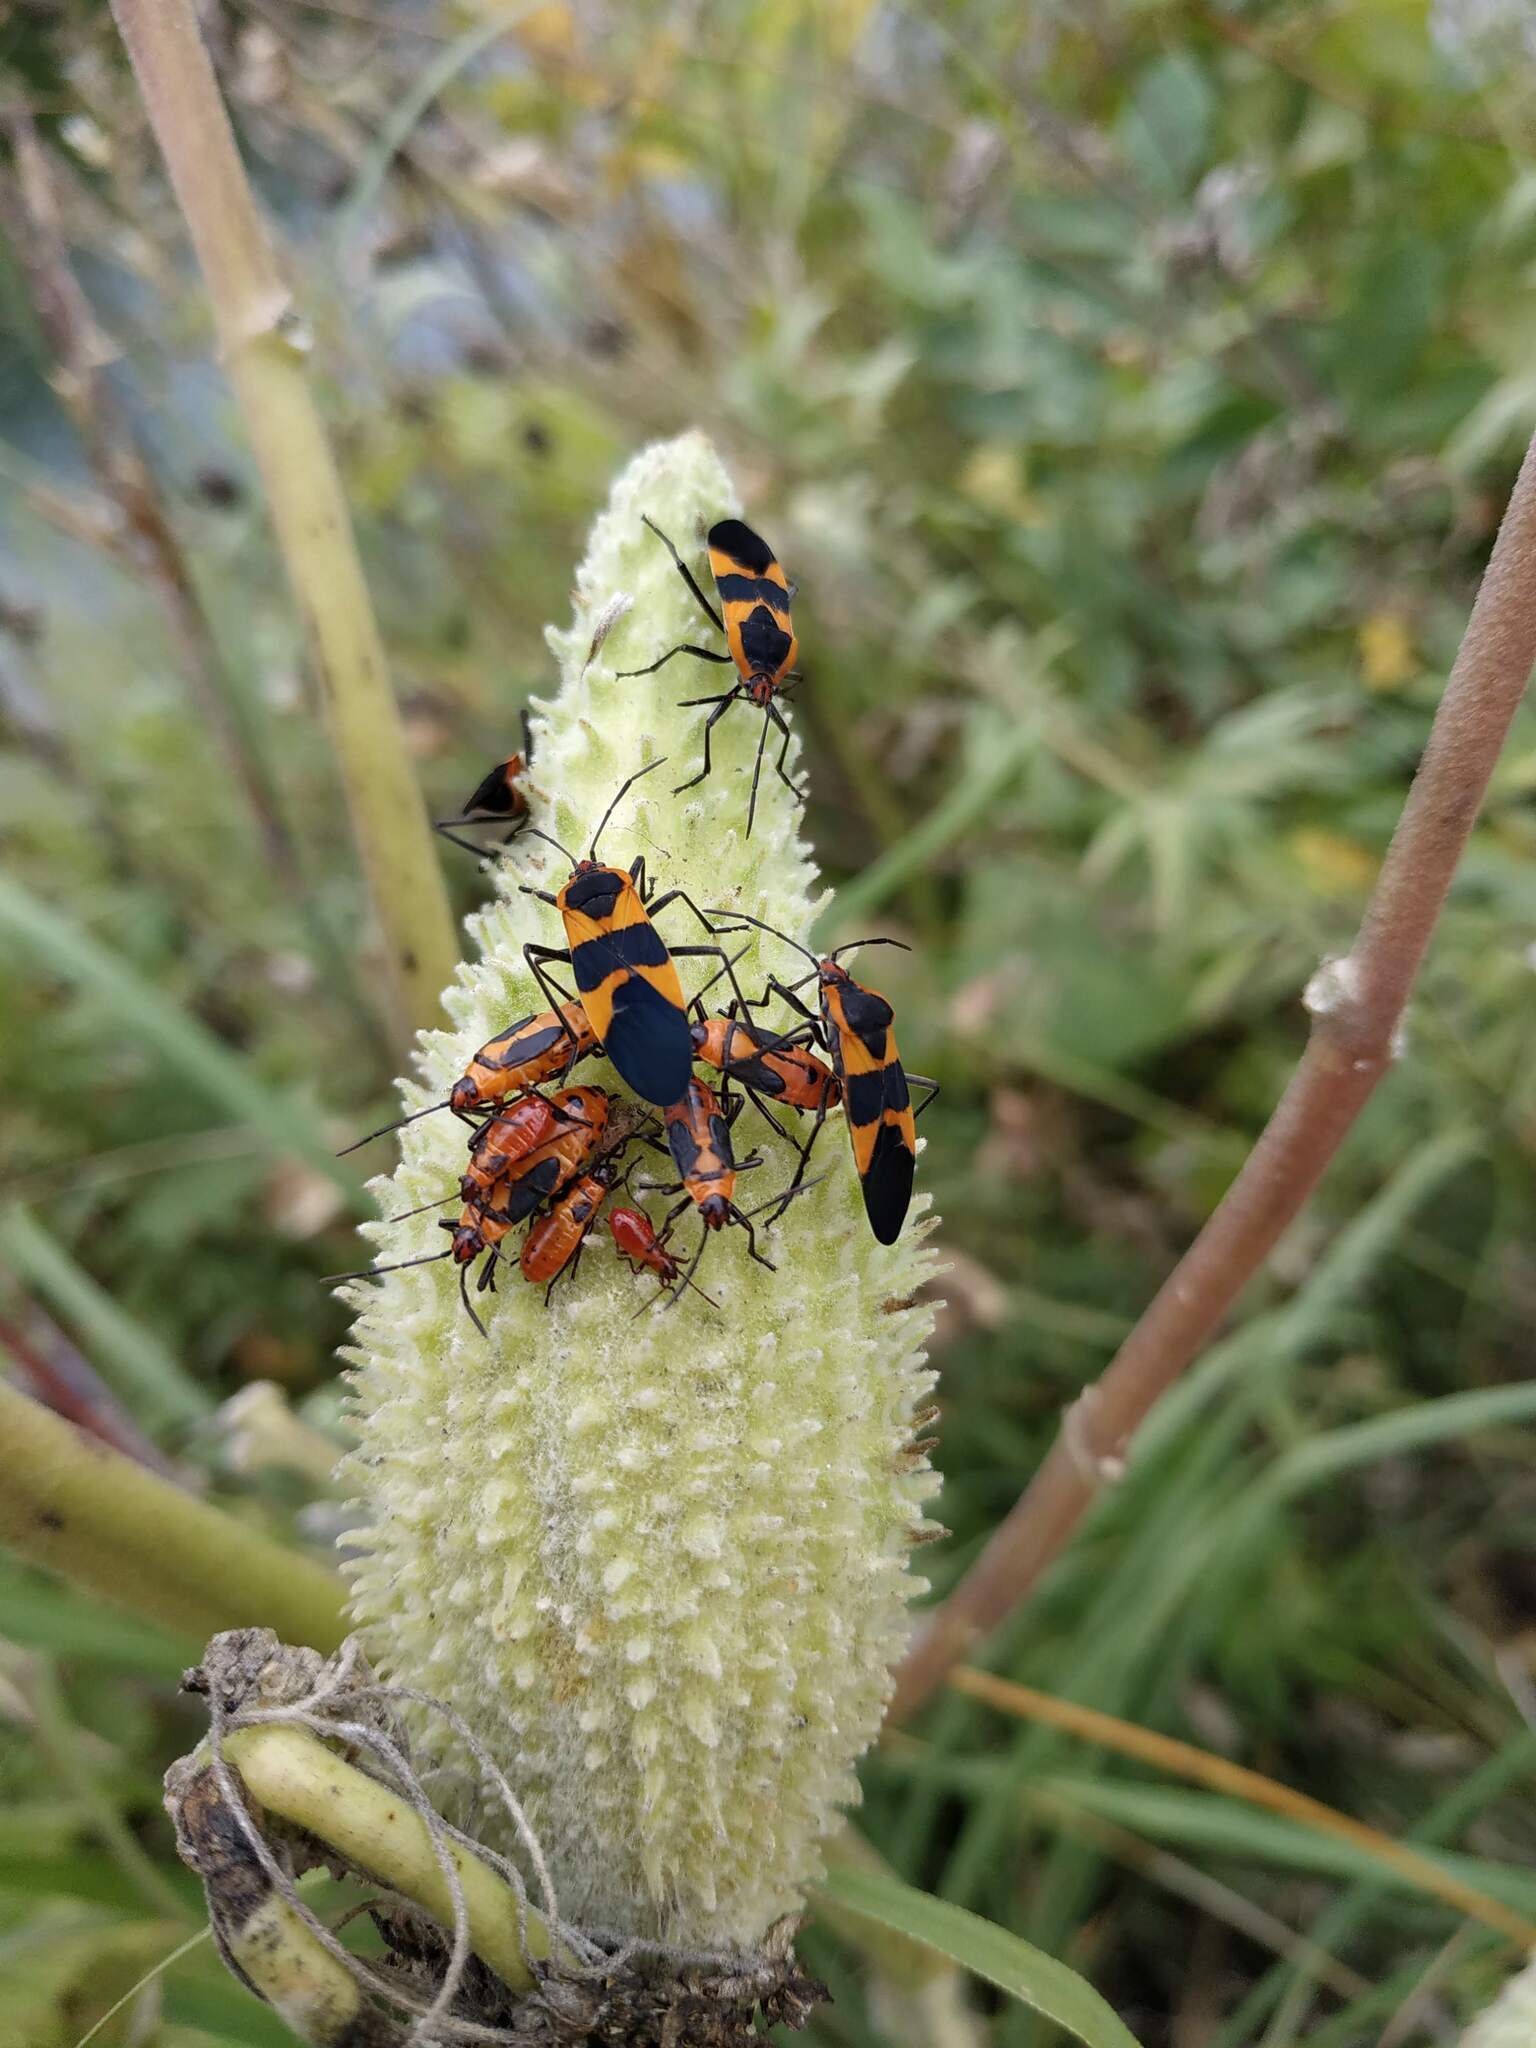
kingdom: Plantae
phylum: Tracheophyta
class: Magnoliopsida
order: Gentianales
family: Apocynaceae
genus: Asclepias
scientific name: Asclepias syriaca
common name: Common milkweed
